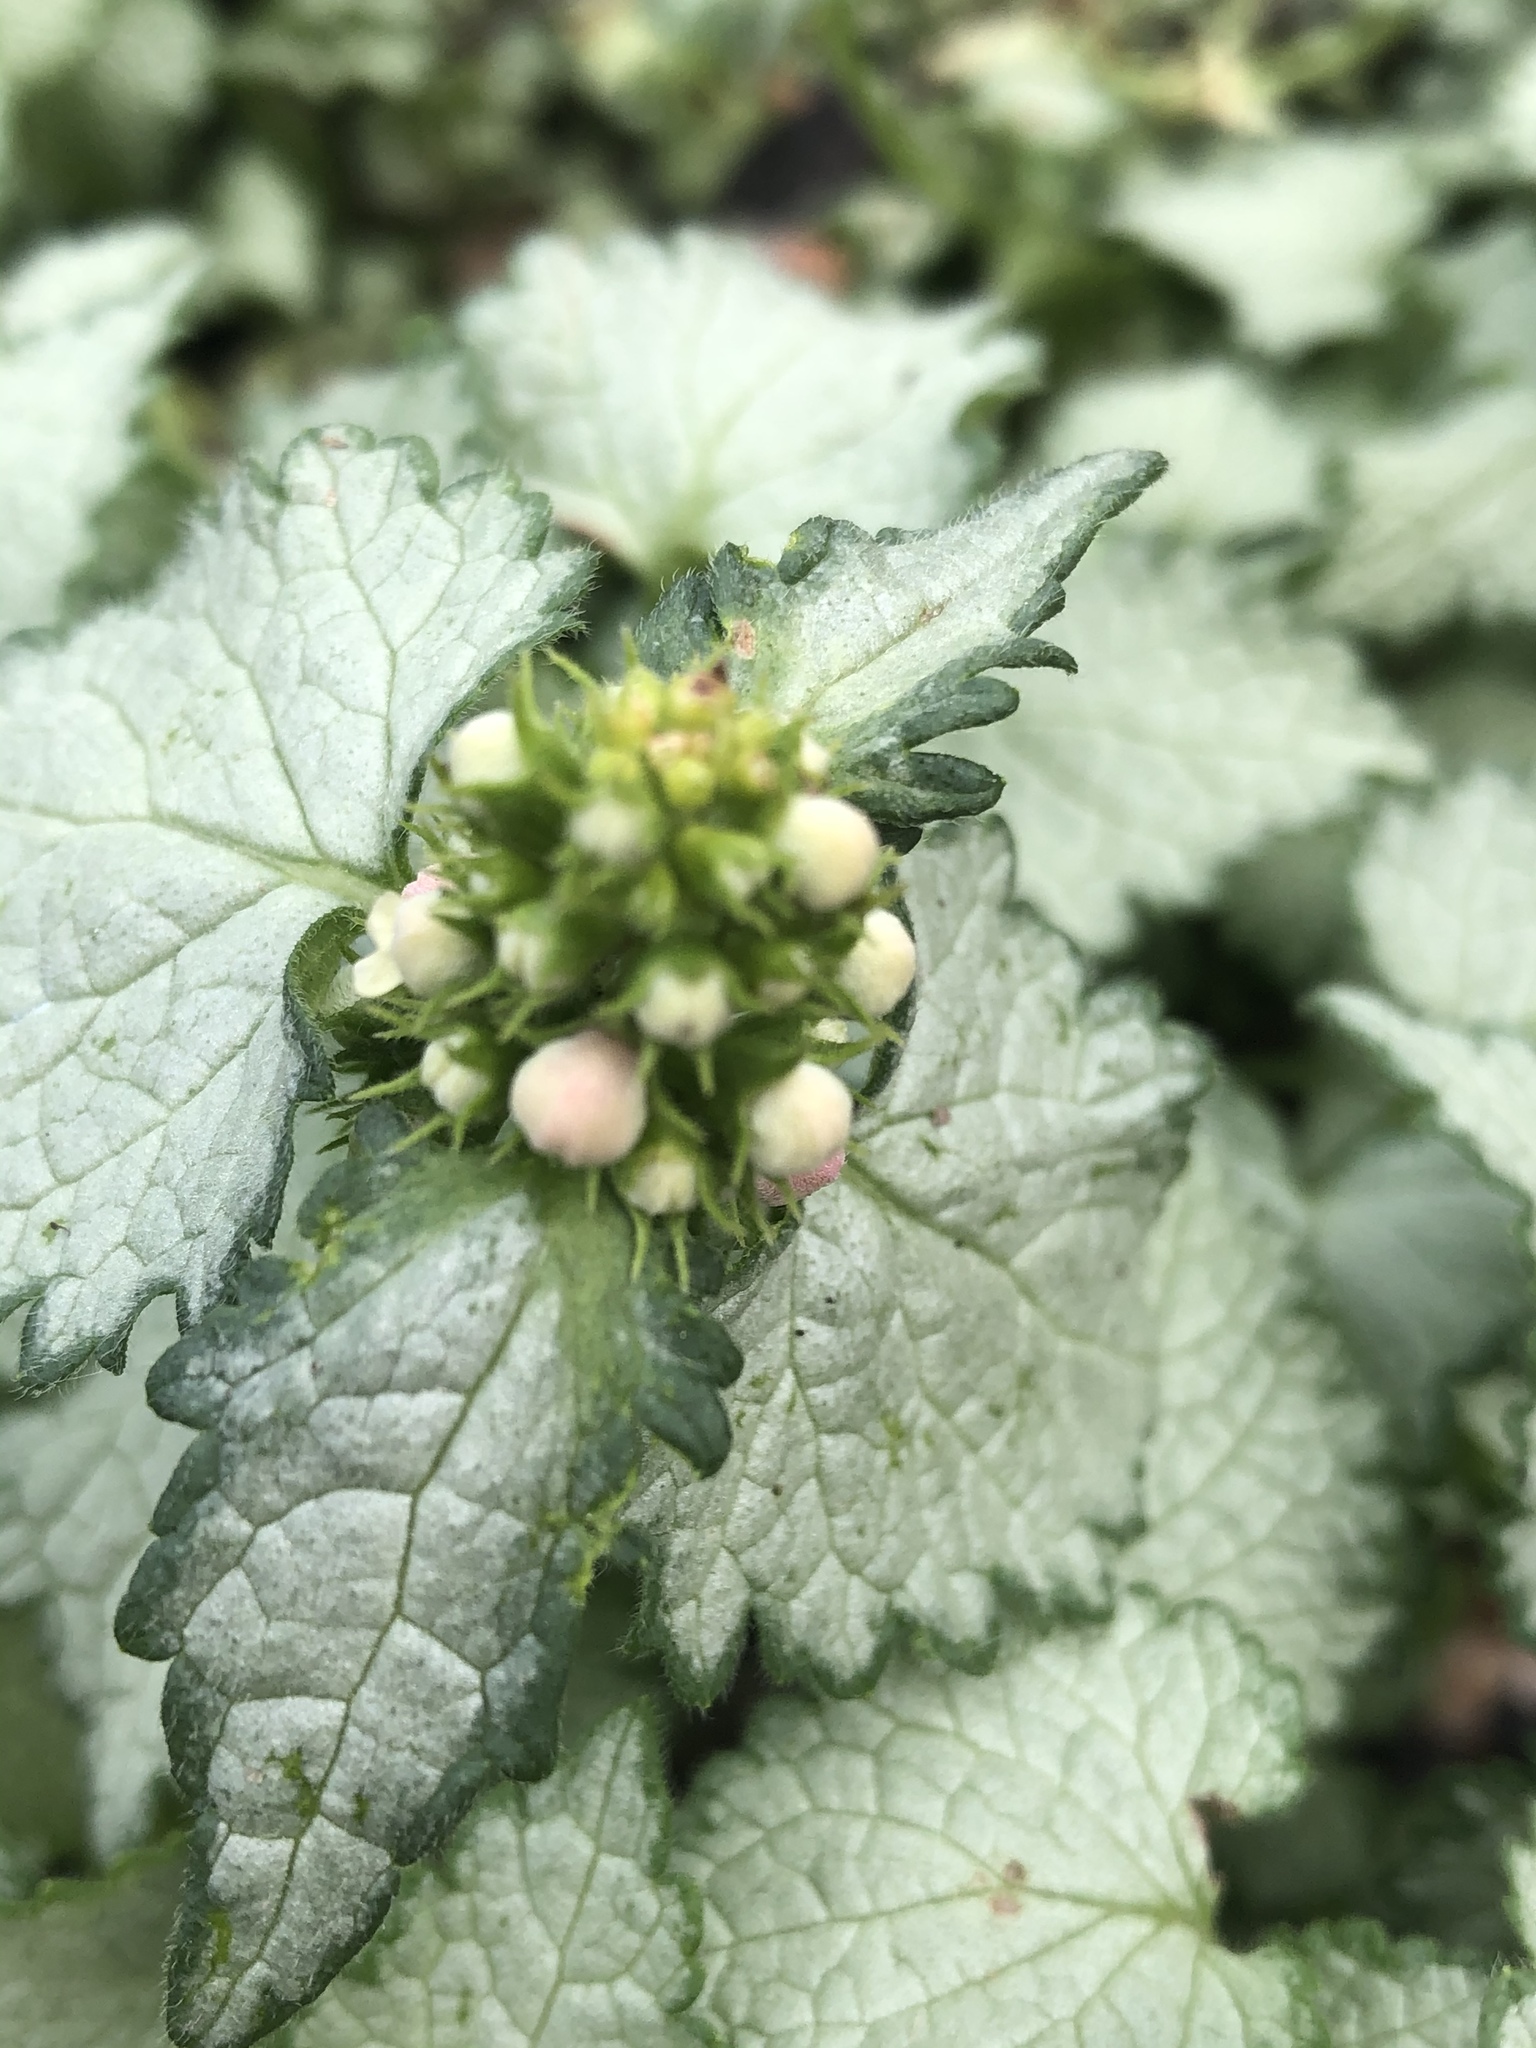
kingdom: Plantae
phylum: Tracheophyta
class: Magnoliopsida
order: Lamiales
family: Lamiaceae
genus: Lamium
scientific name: Lamium maculatum
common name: Spotted dead-nettle
